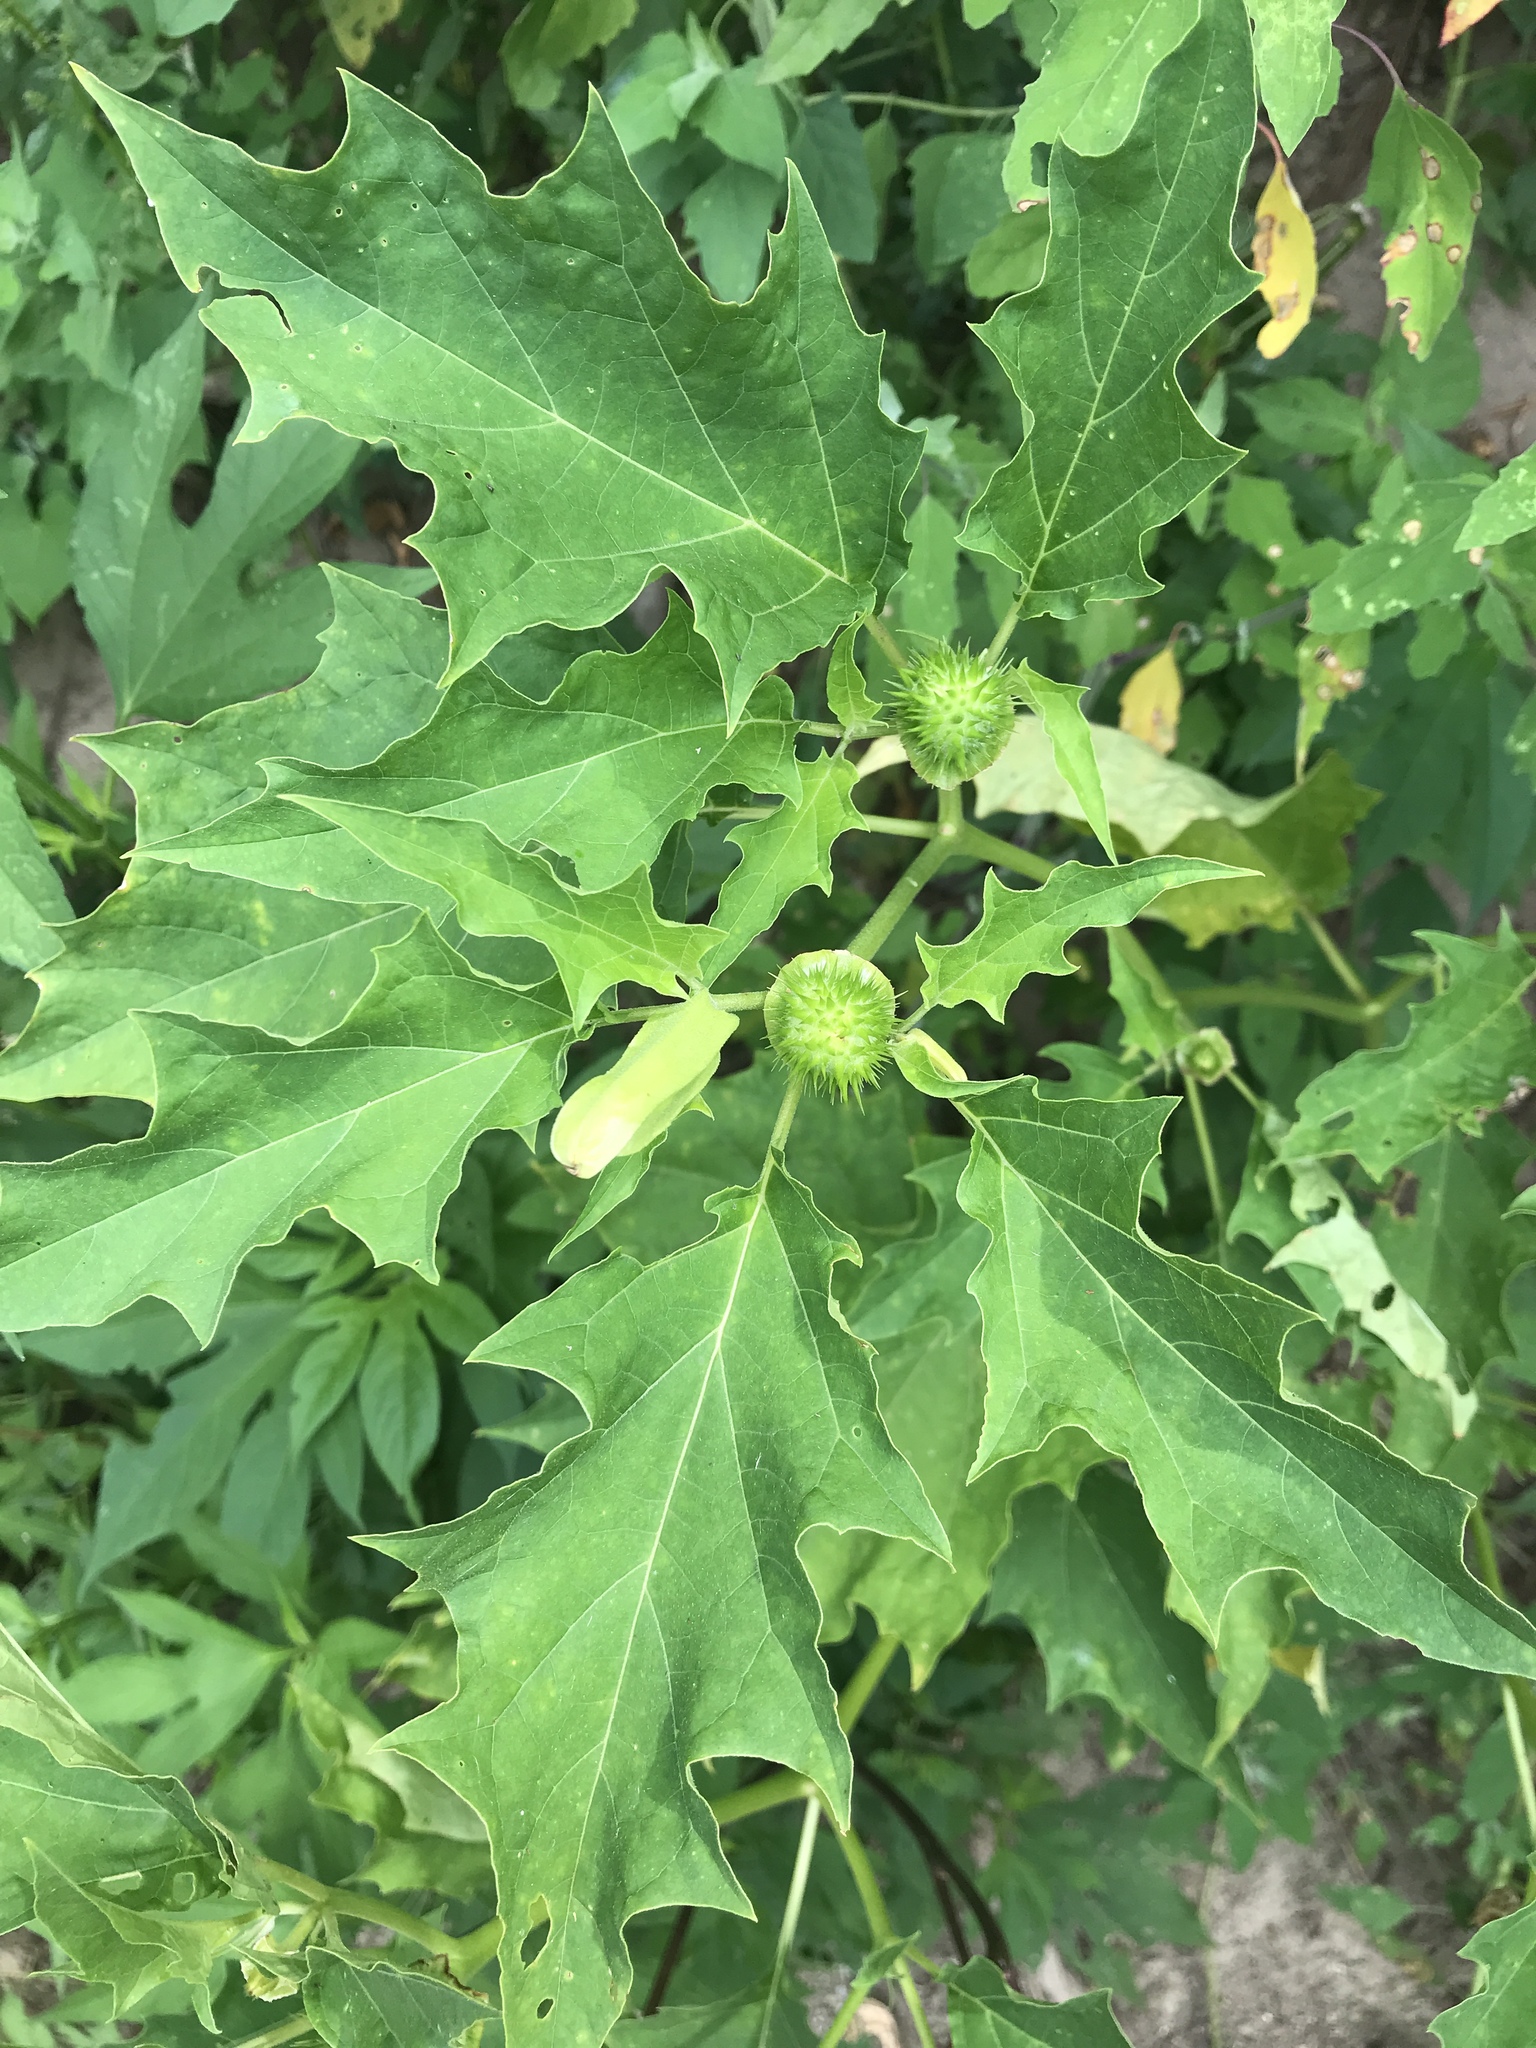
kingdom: Plantae
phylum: Tracheophyta
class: Magnoliopsida
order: Solanales
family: Solanaceae
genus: Datura
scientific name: Datura stramonium
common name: Thorn-apple
